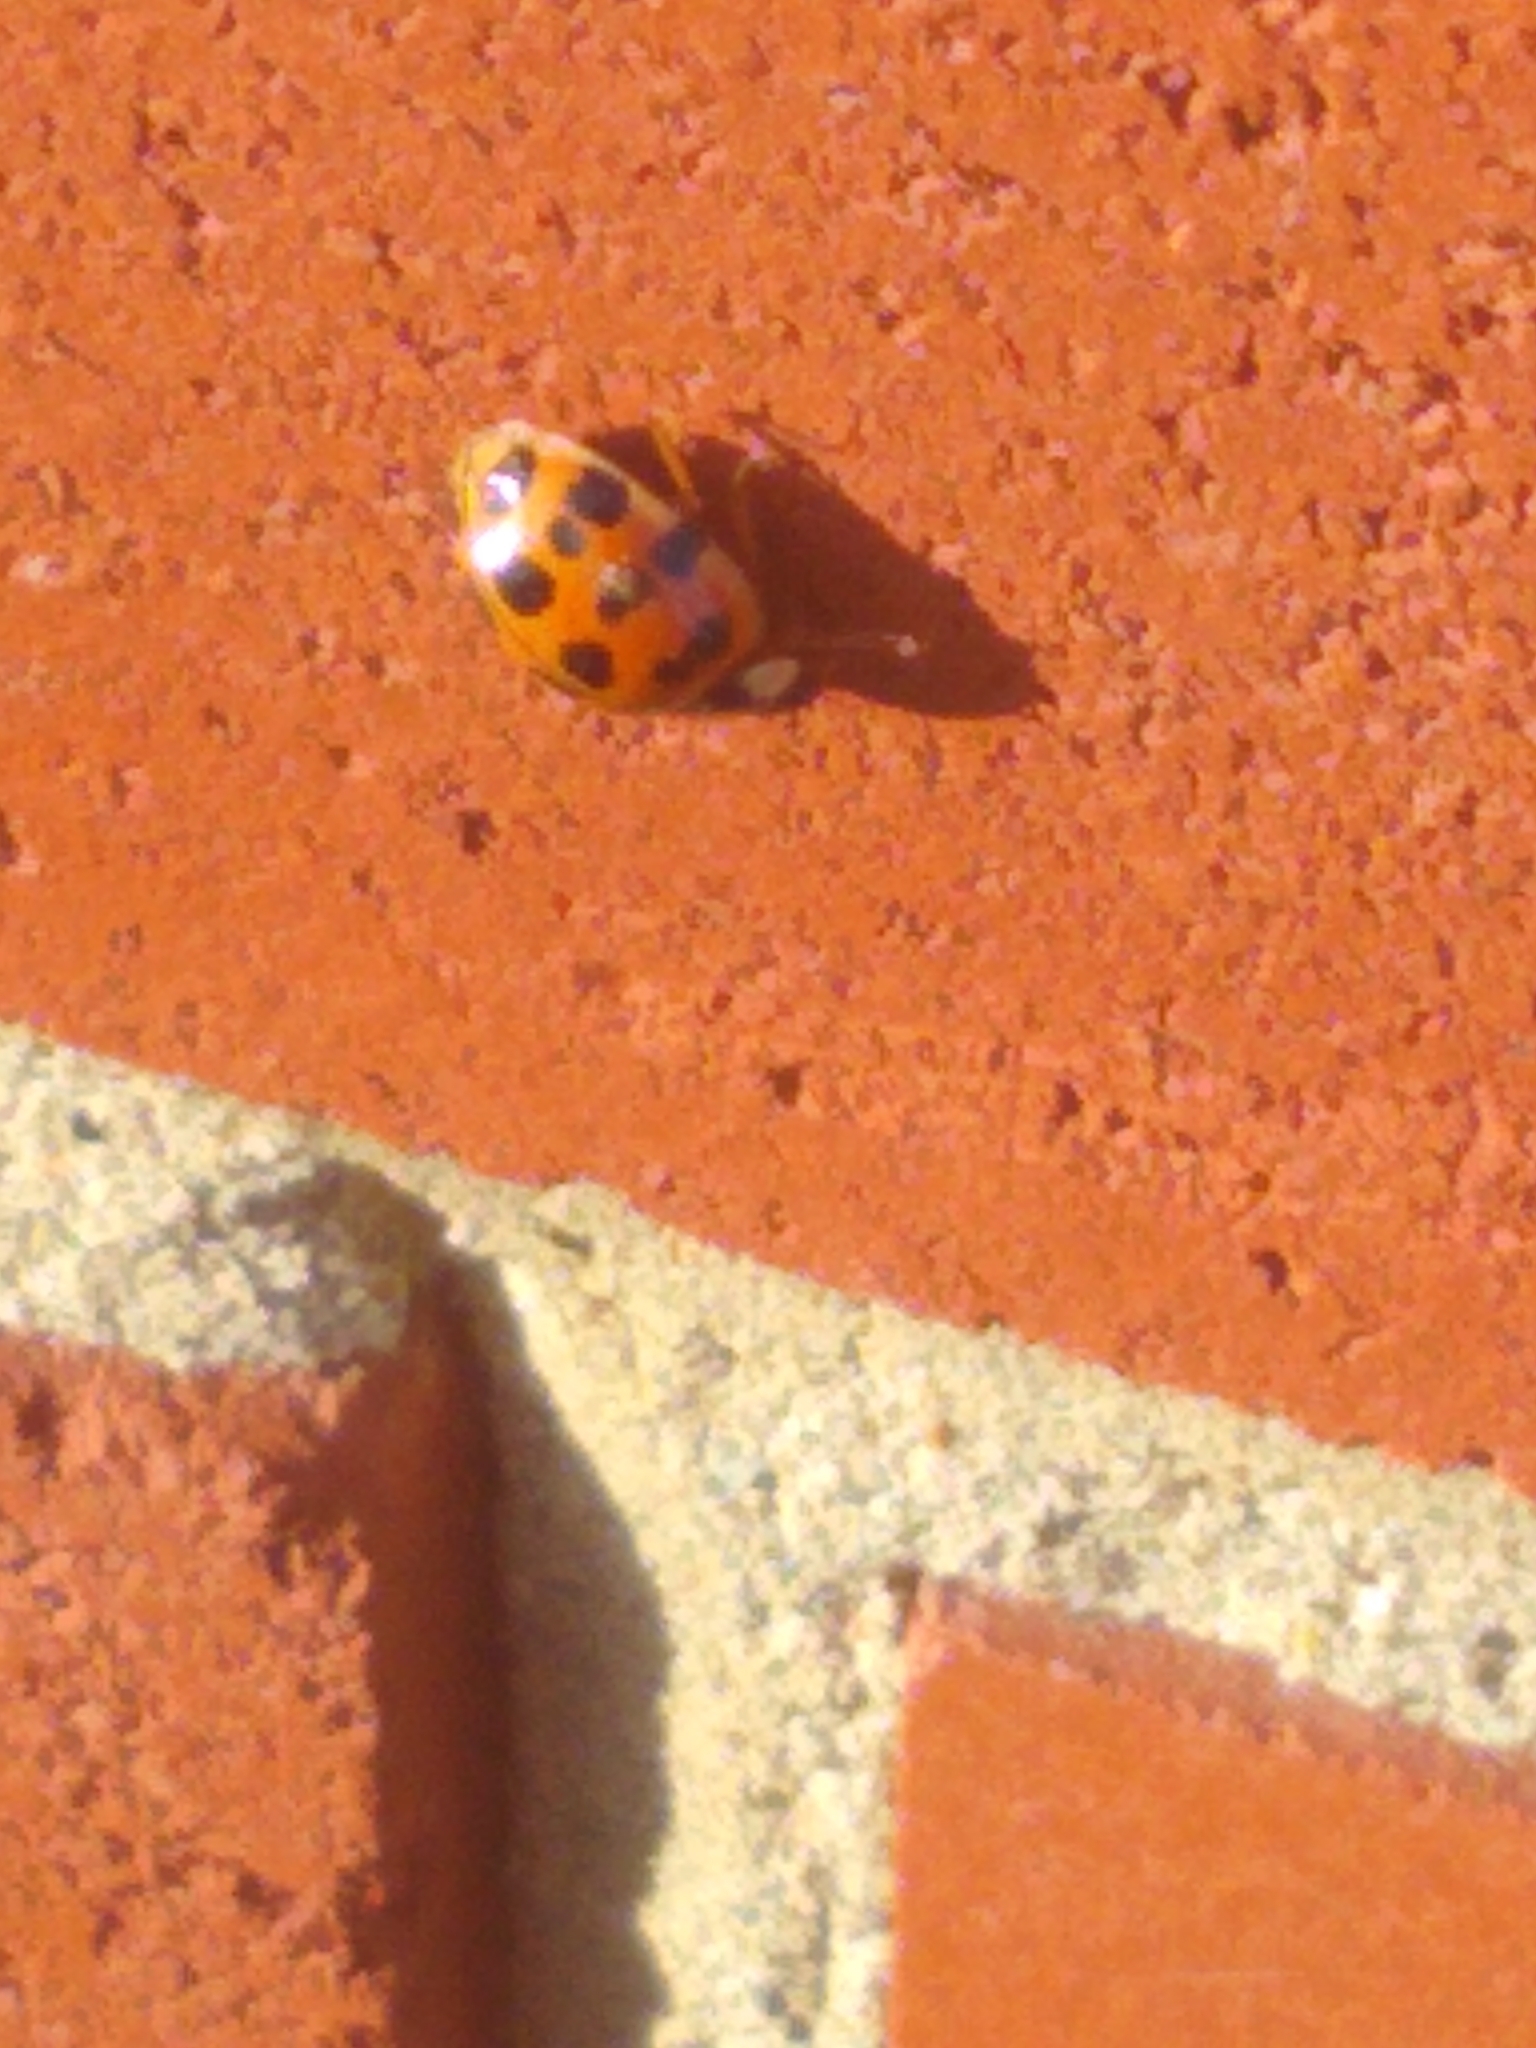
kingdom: Animalia
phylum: Arthropoda
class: Insecta
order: Coleoptera
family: Coccinellidae
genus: Harmonia
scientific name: Harmonia axyridis
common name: Harlequin ladybird
